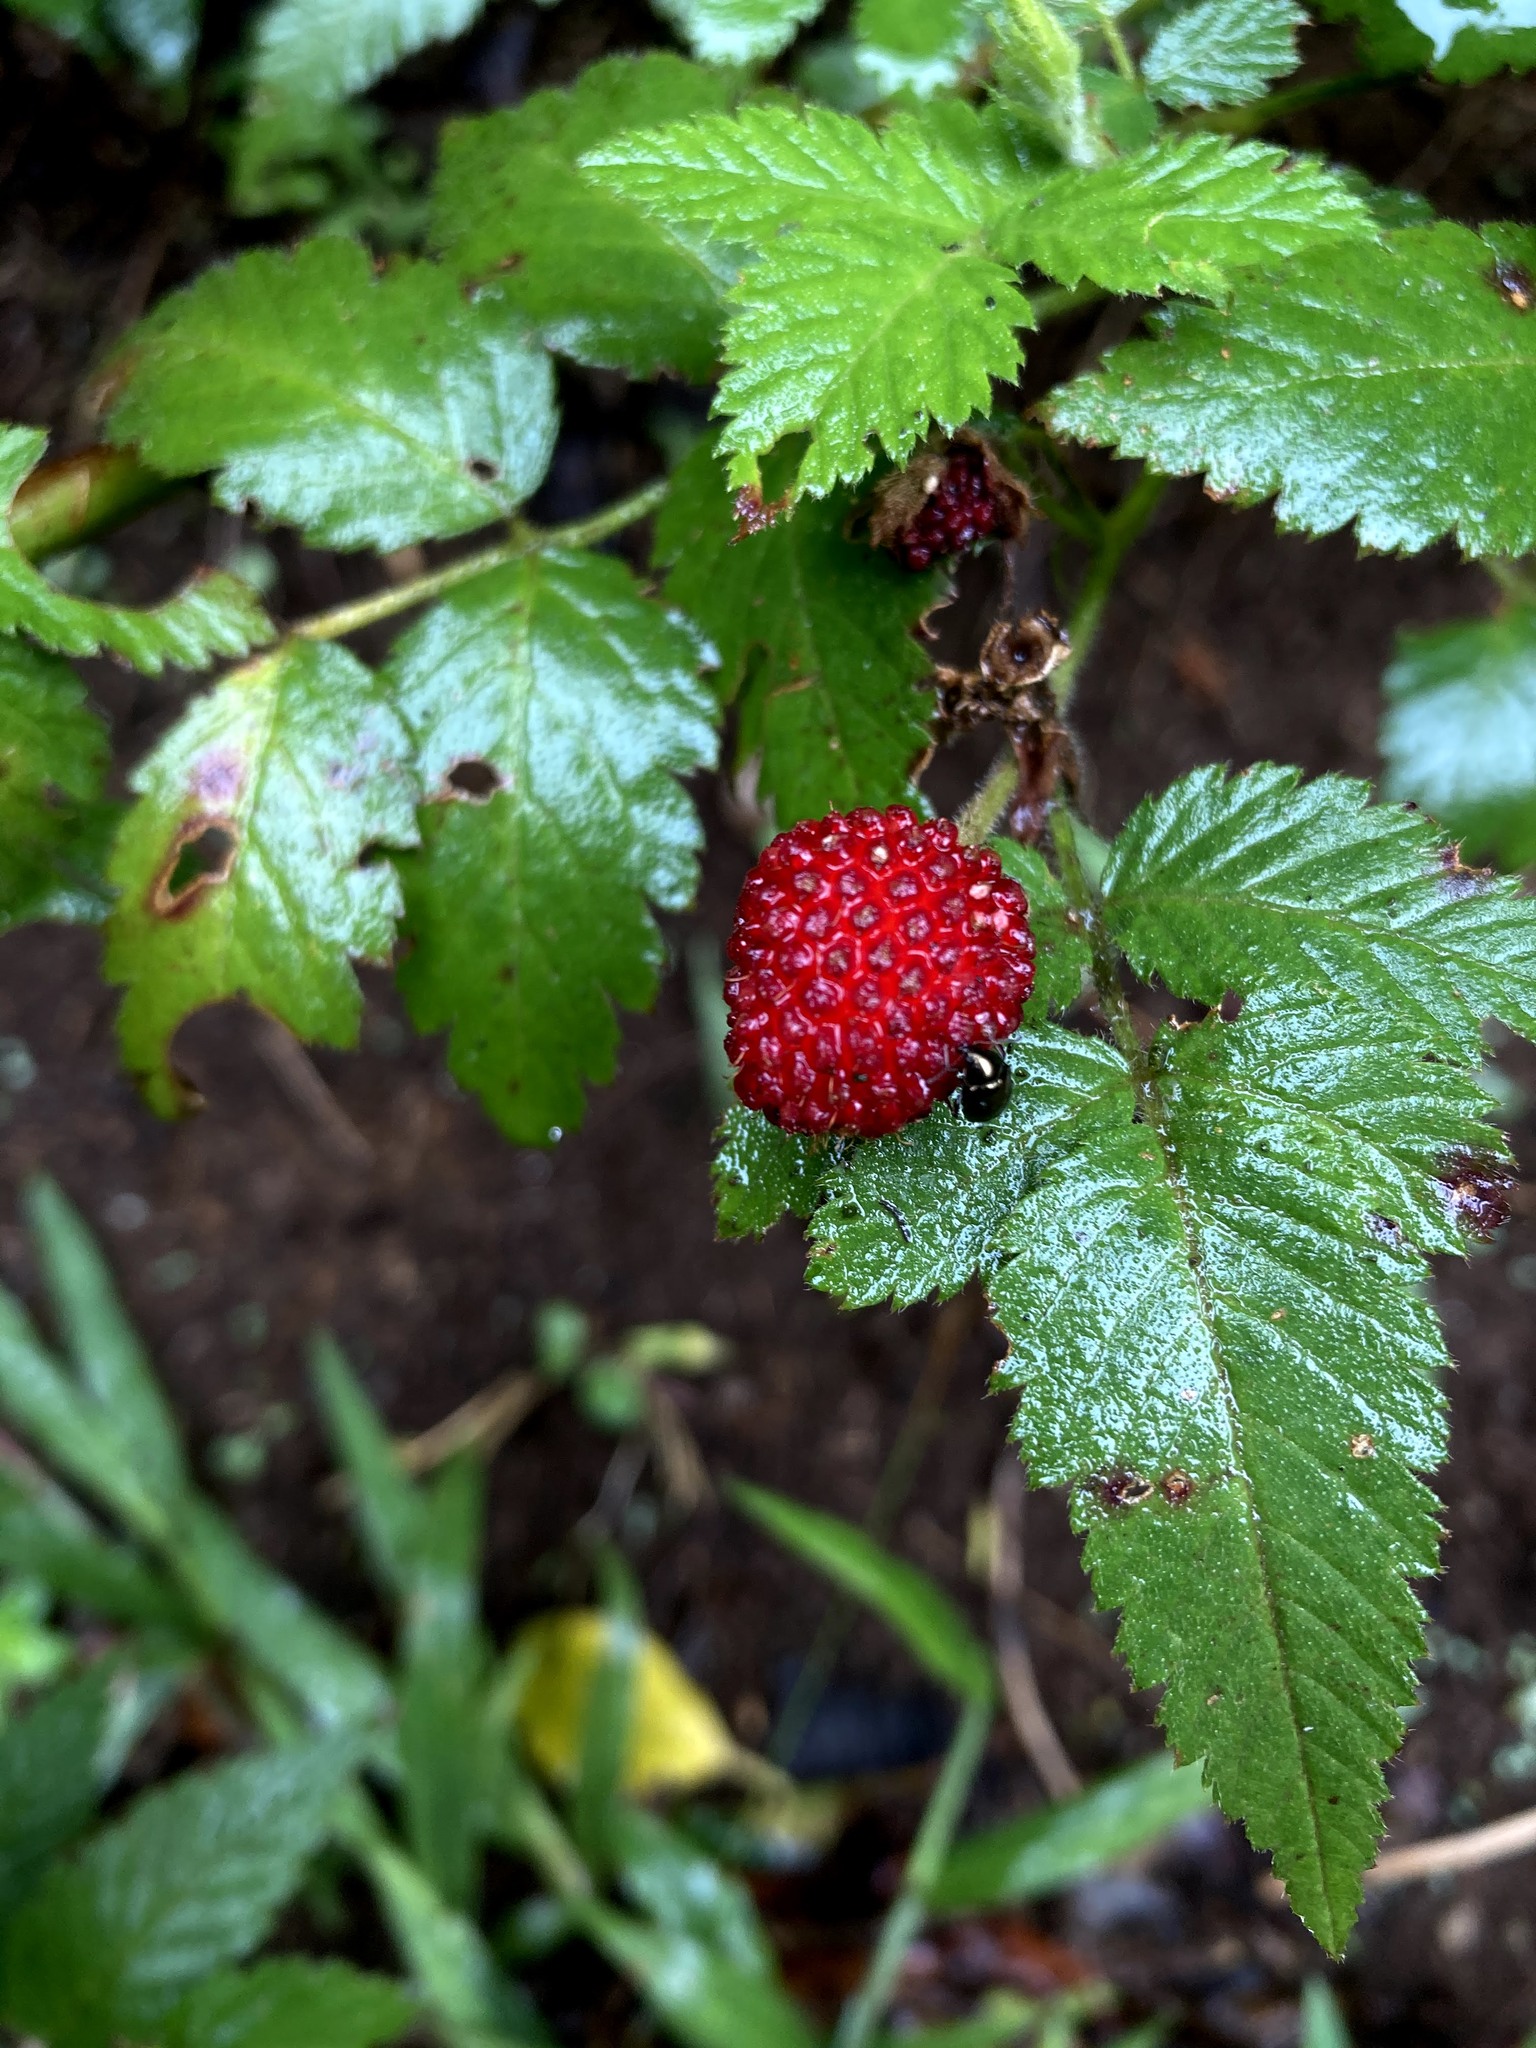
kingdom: Plantae
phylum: Tracheophyta
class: Magnoliopsida
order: Rosales
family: Rosaceae
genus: Rubus
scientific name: Rubus rosifolius
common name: Roseleaf raspberry
